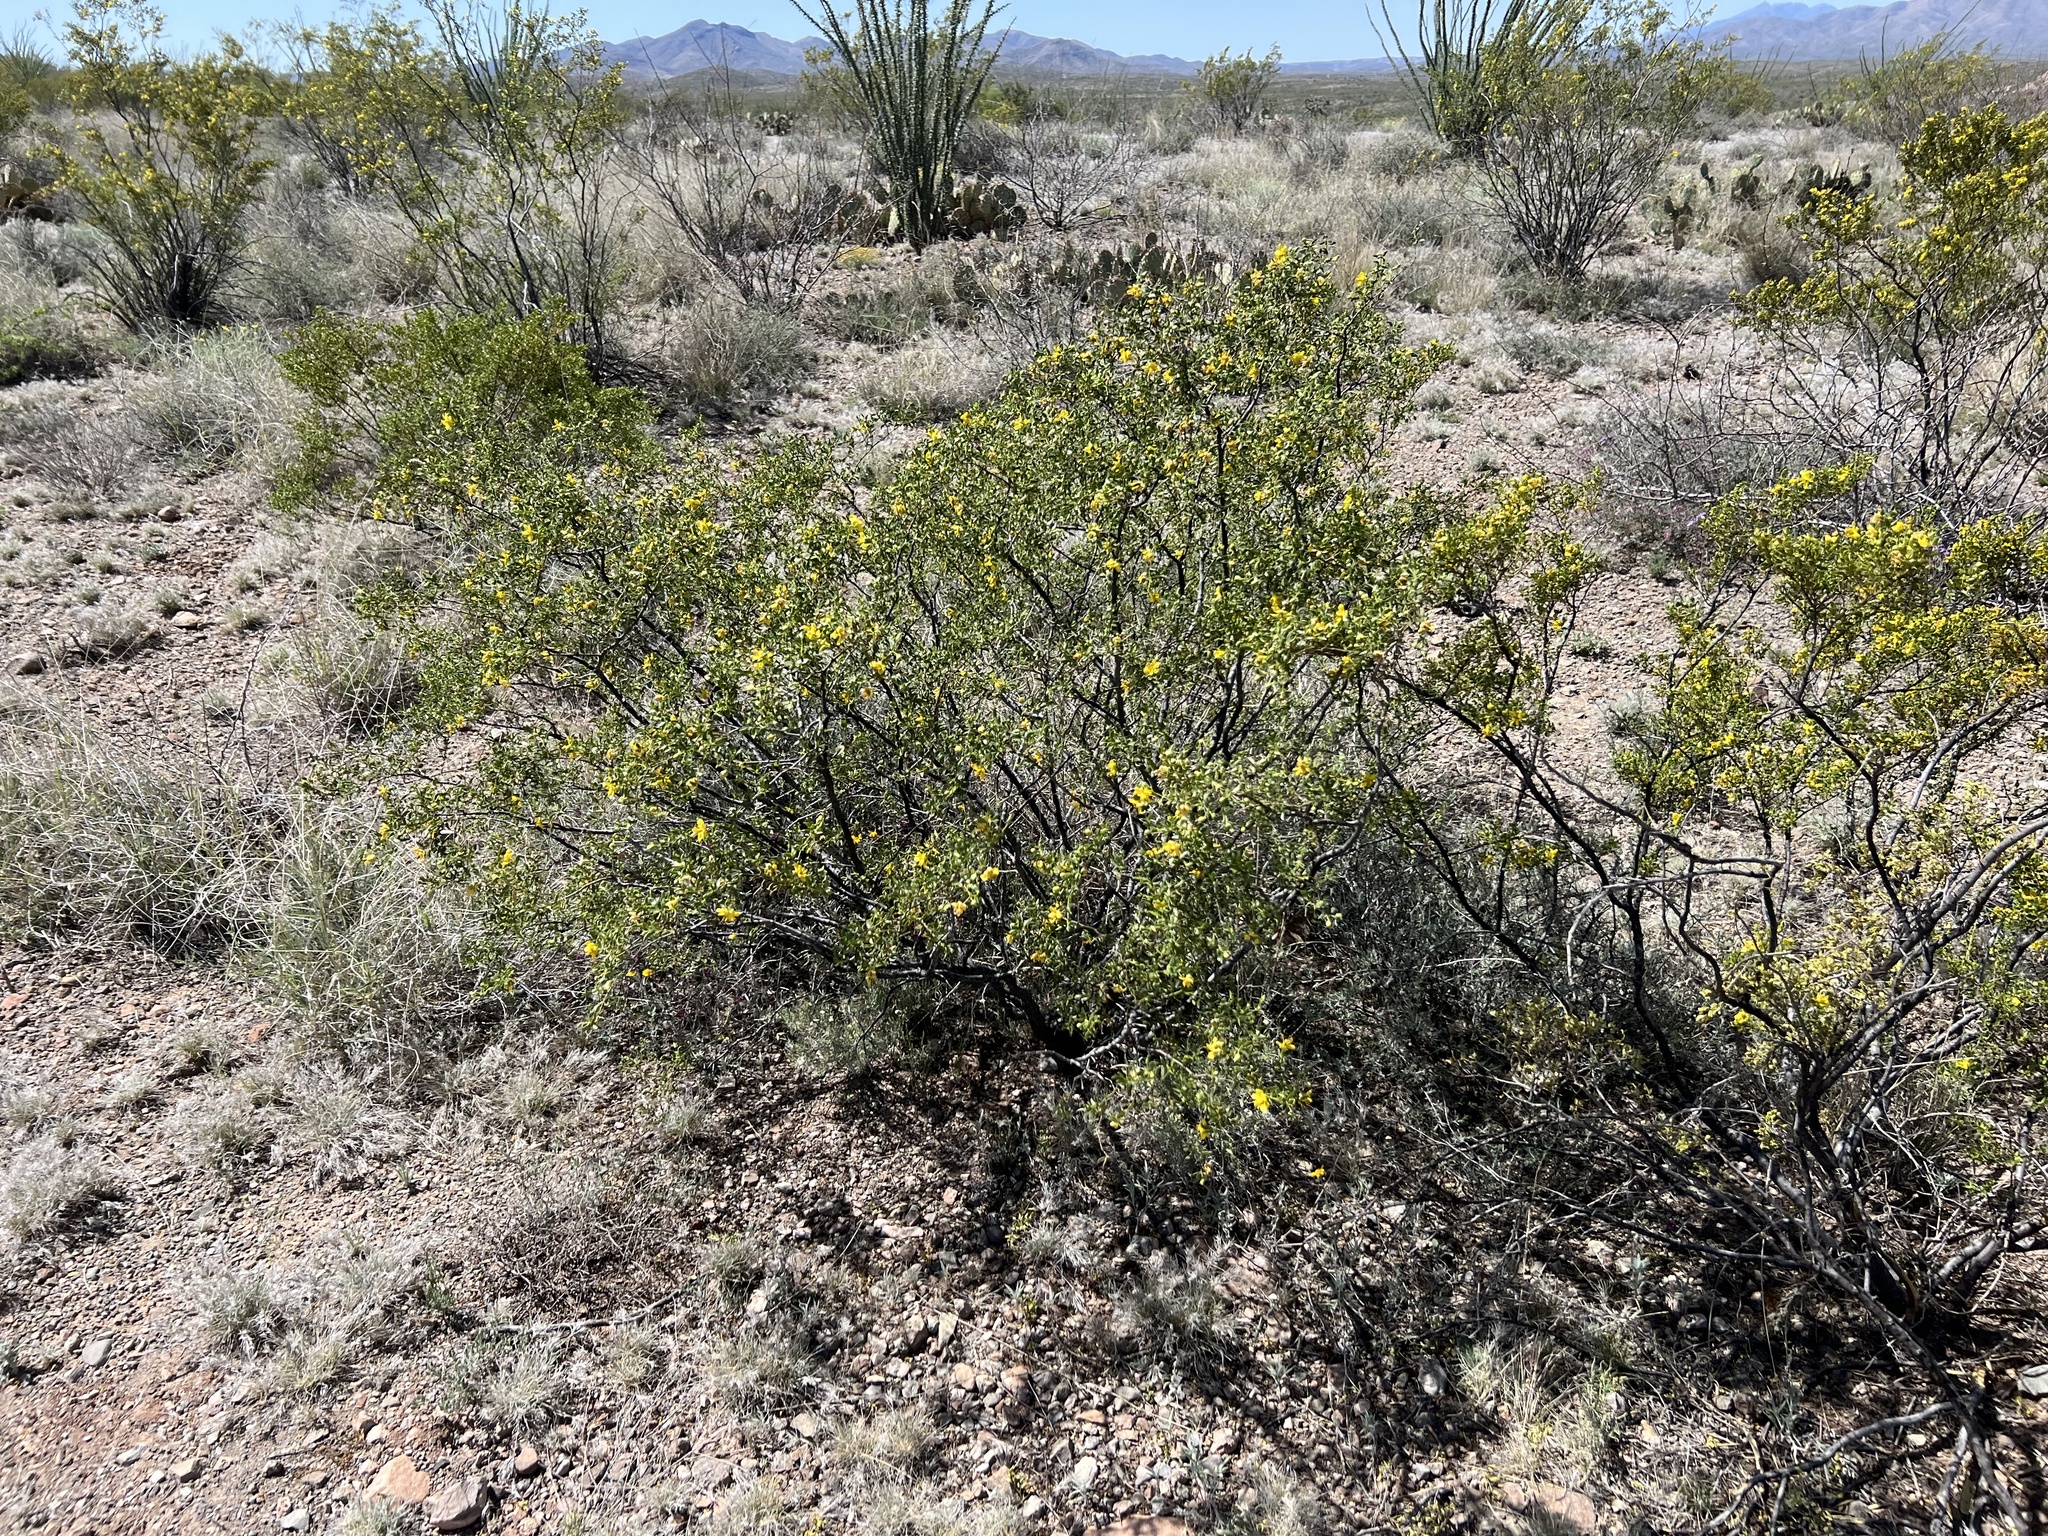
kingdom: Plantae
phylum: Tracheophyta
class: Magnoliopsida
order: Zygophyllales
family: Zygophyllaceae
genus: Larrea
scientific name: Larrea tridentata
